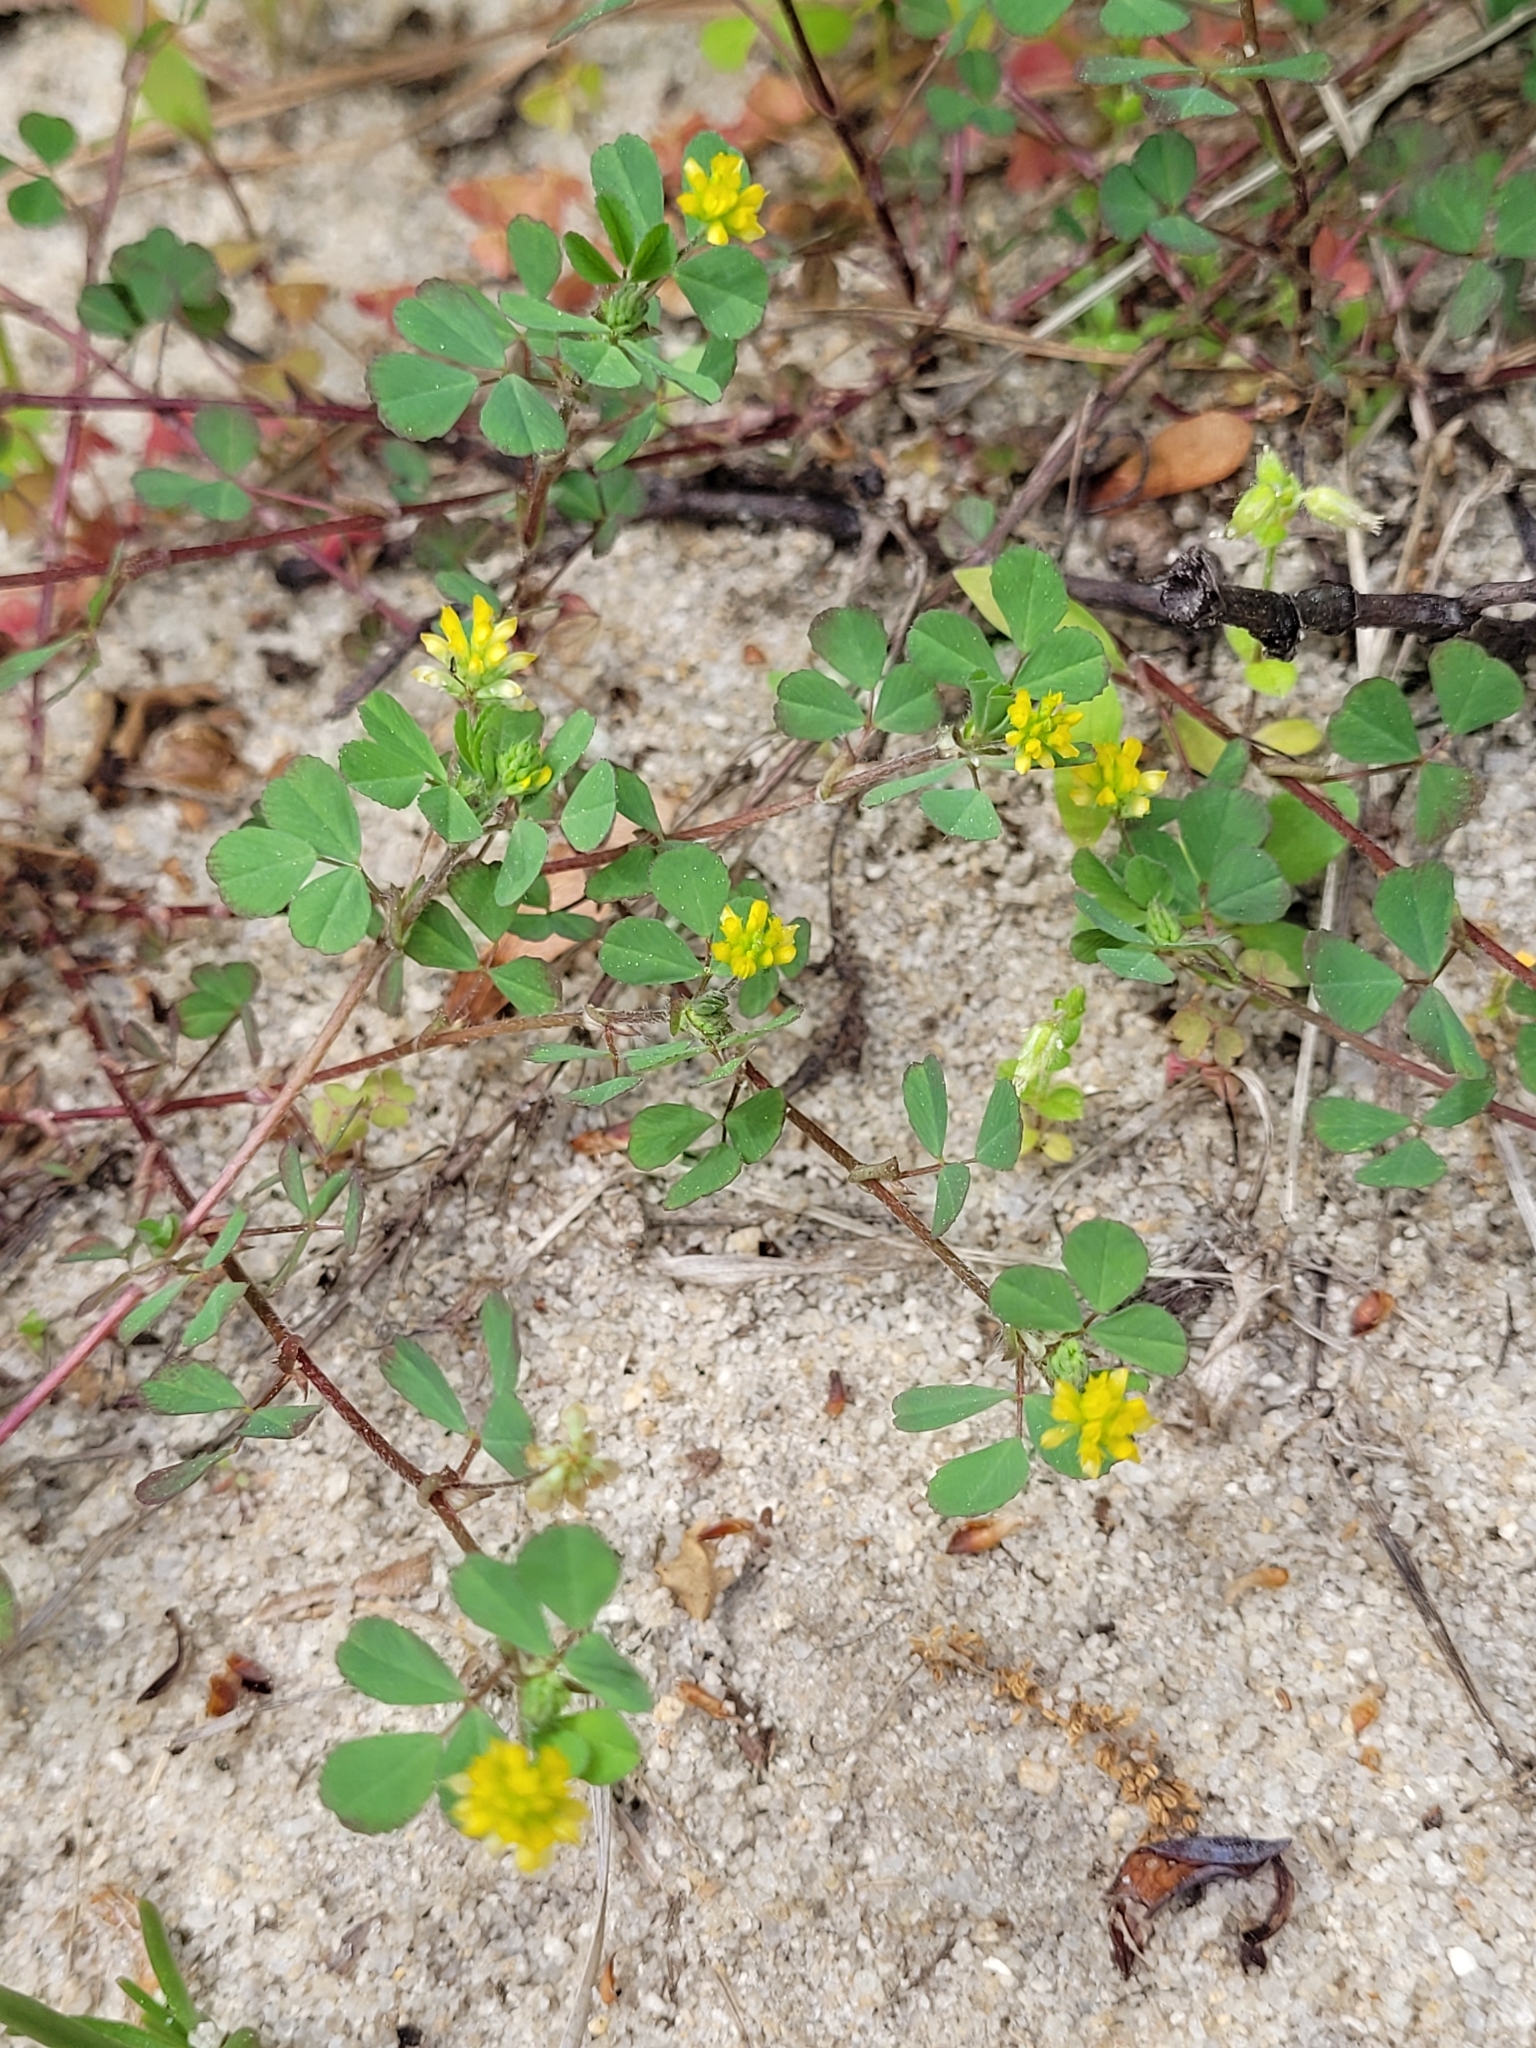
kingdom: Plantae
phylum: Tracheophyta
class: Magnoliopsida
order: Fabales
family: Fabaceae
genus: Trifolium
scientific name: Trifolium dubium
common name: Suckling clover
